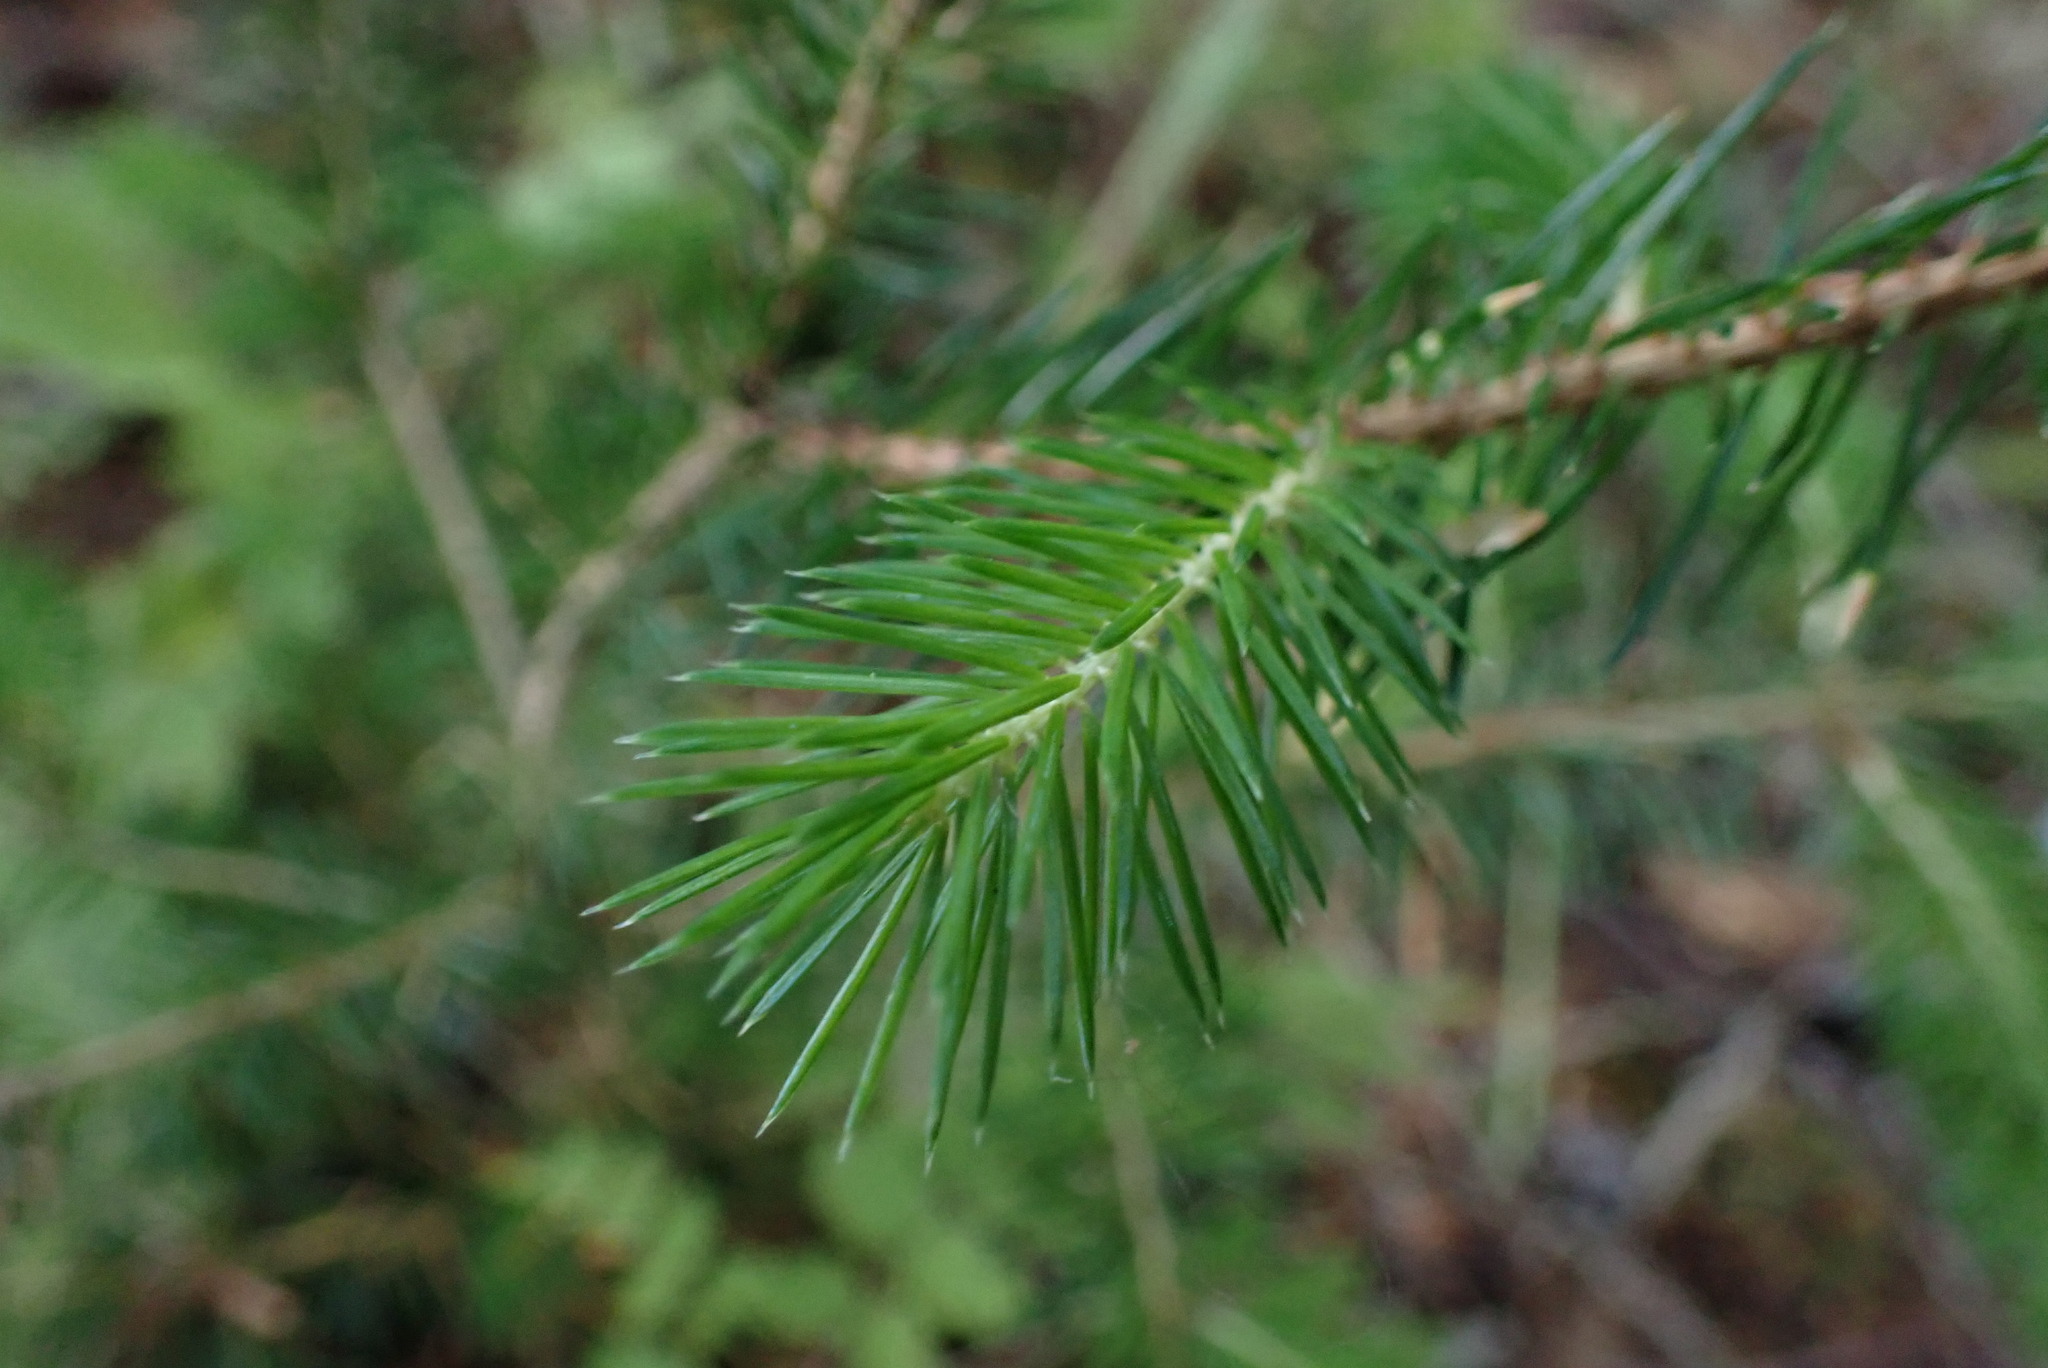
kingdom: Plantae
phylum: Tracheophyta
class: Pinopsida
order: Pinales
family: Pinaceae
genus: Picea
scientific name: Picea sitchensis
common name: Sitka spruce
